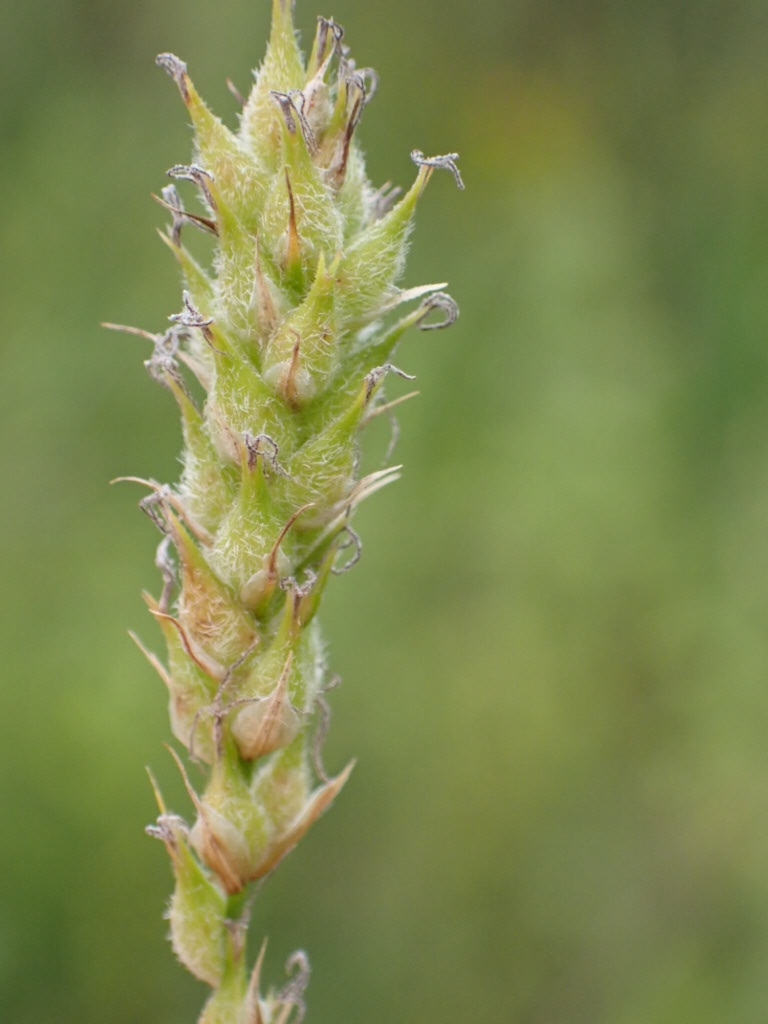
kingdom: Plantae
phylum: Tracheophyta
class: Liliopsida
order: Poales
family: Cyperaceae
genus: Carex
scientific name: Carex hirta
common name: Hairy sedge
